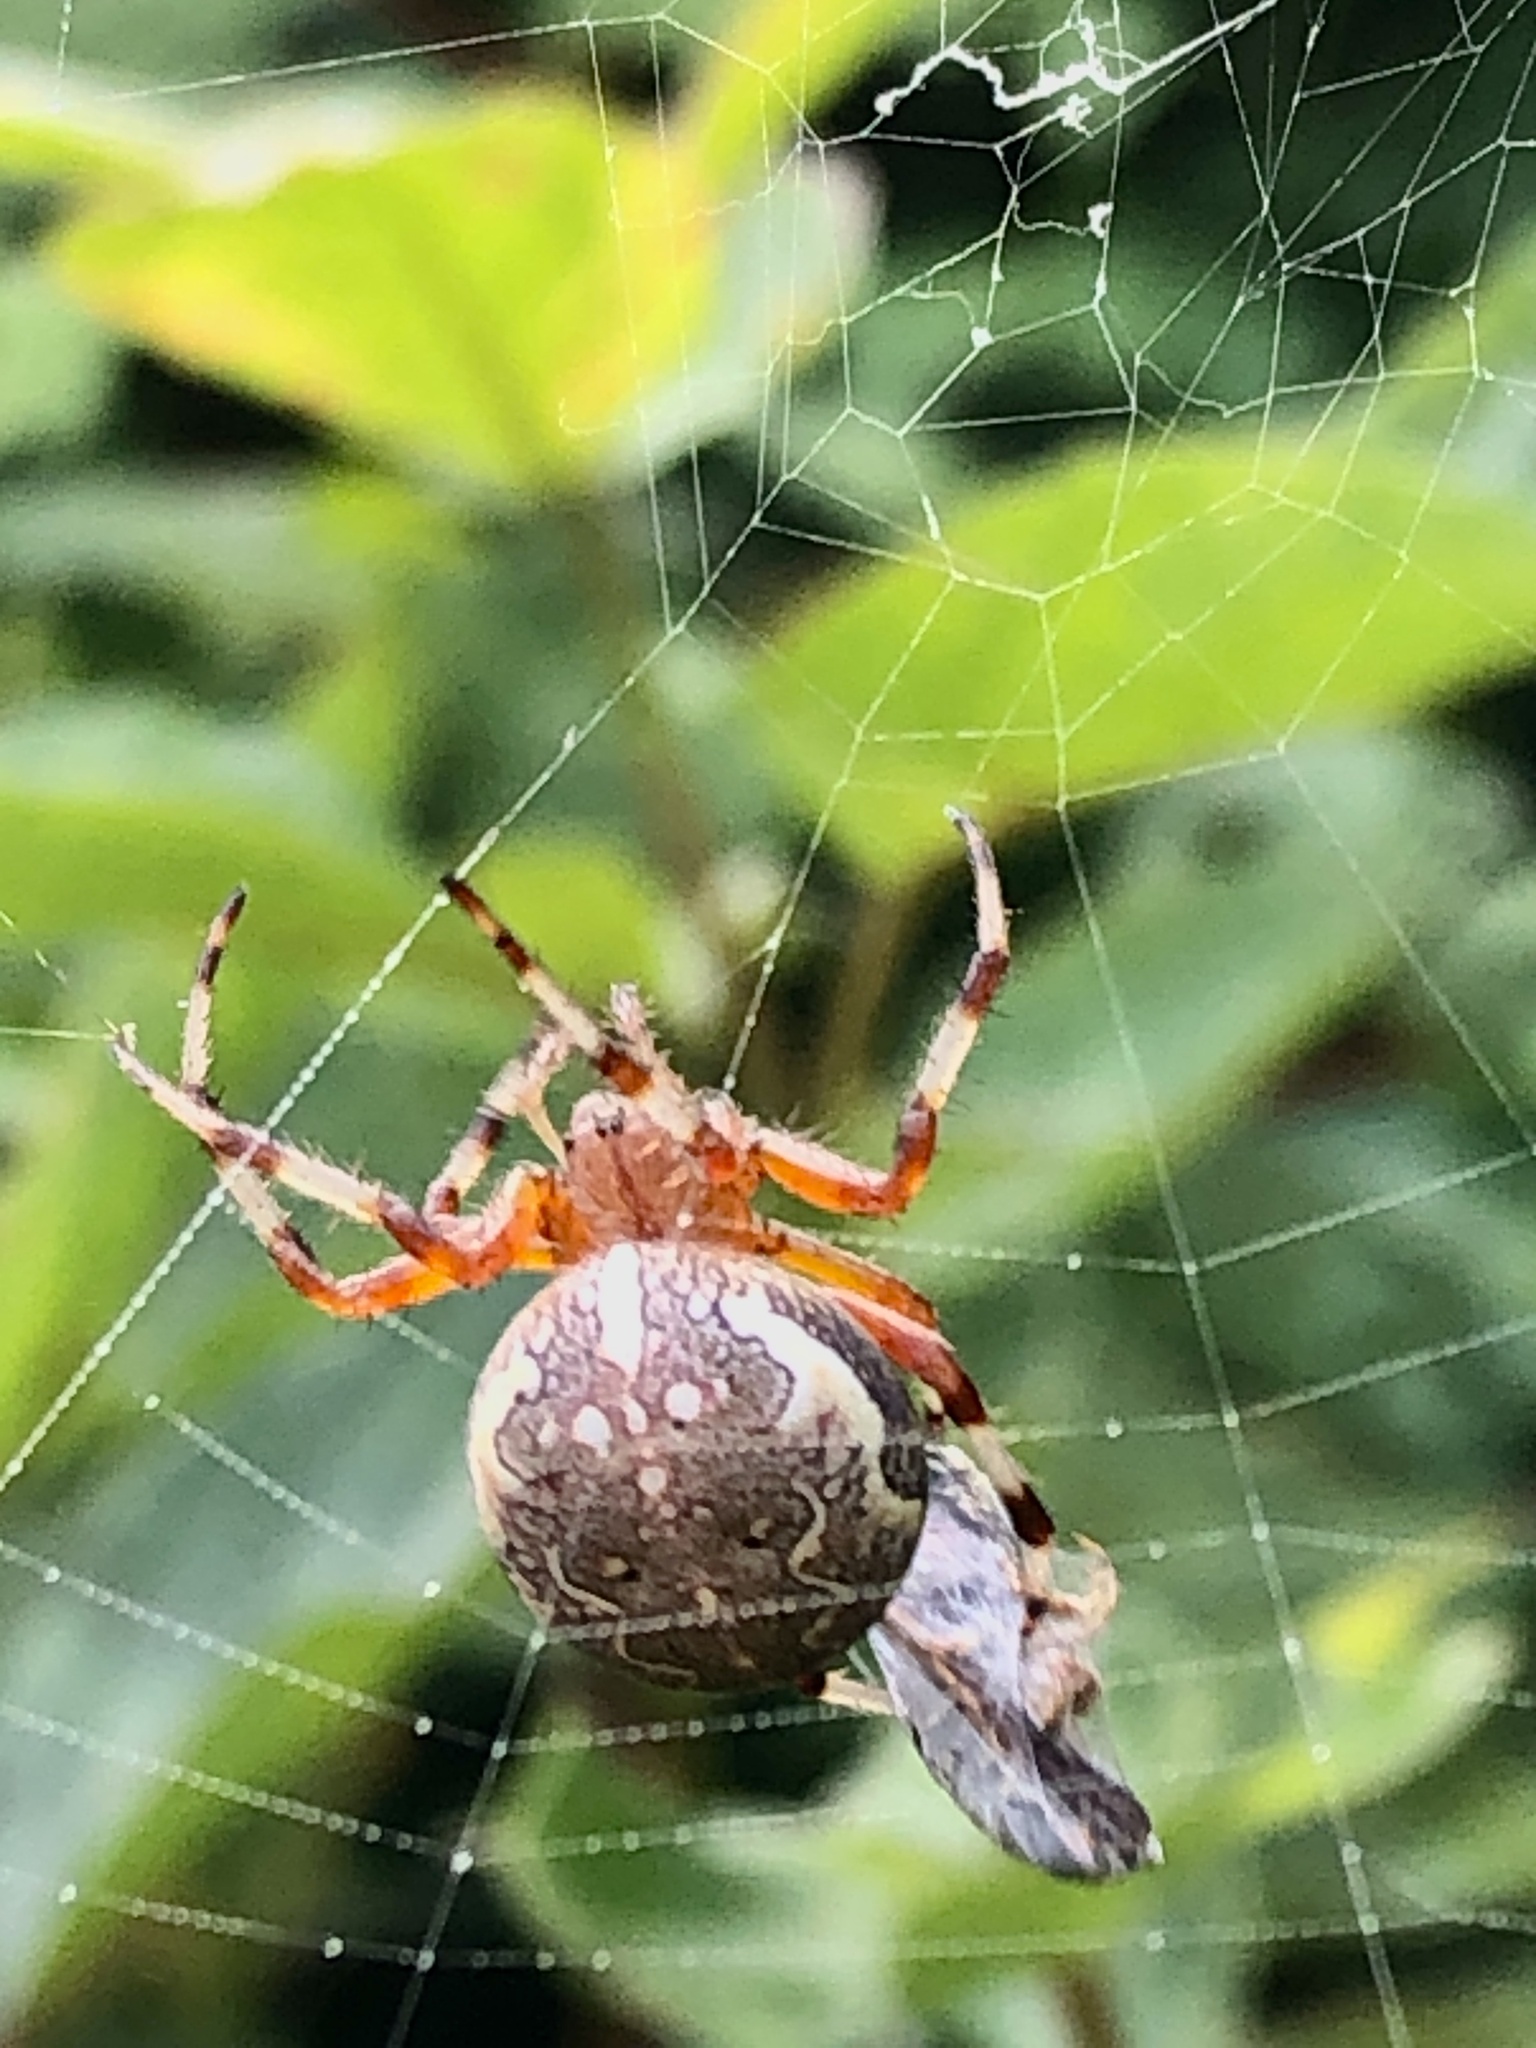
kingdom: Animalia
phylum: Arthropoda
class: Arachnida
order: Araneae
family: Araneidae
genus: Araneus
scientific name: Araneus marmoreus
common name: Marbled orbweaver
